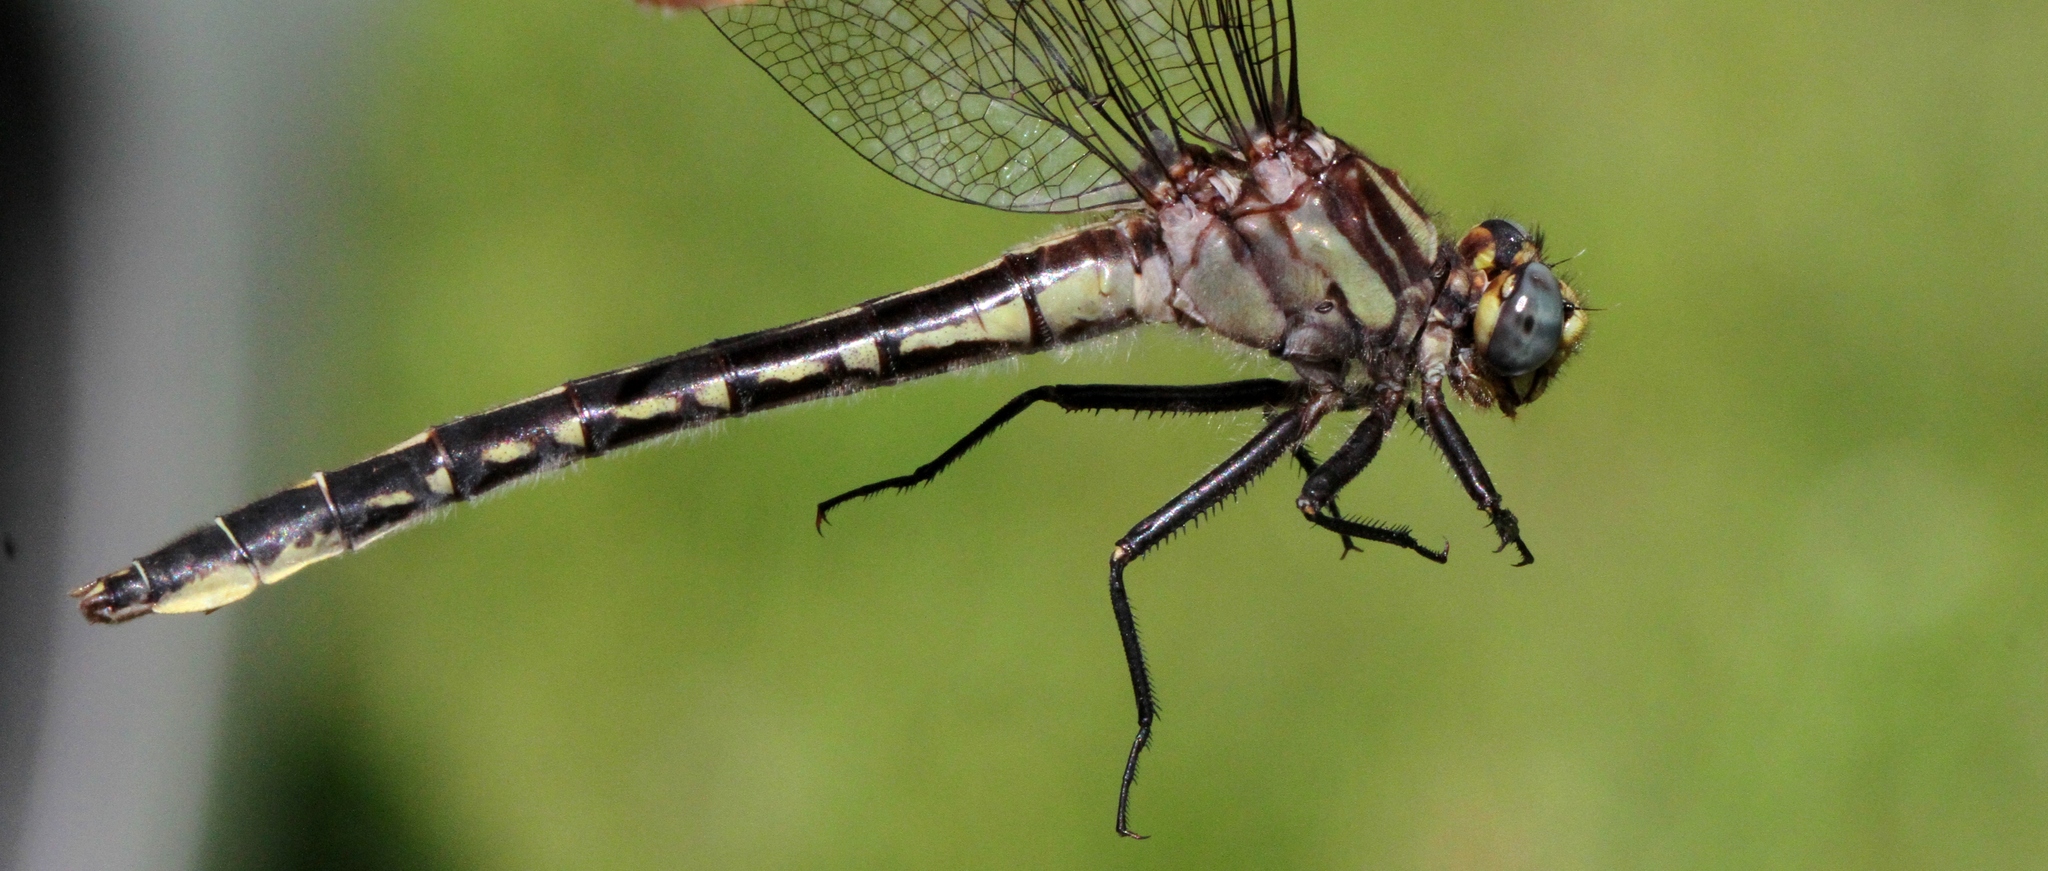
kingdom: Animalia
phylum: Arthropoda
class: Insecta
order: Odonata
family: Gomphidae
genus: Phanogomphus
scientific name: Phanogomphus borealis
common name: Beaverpond clubtail
